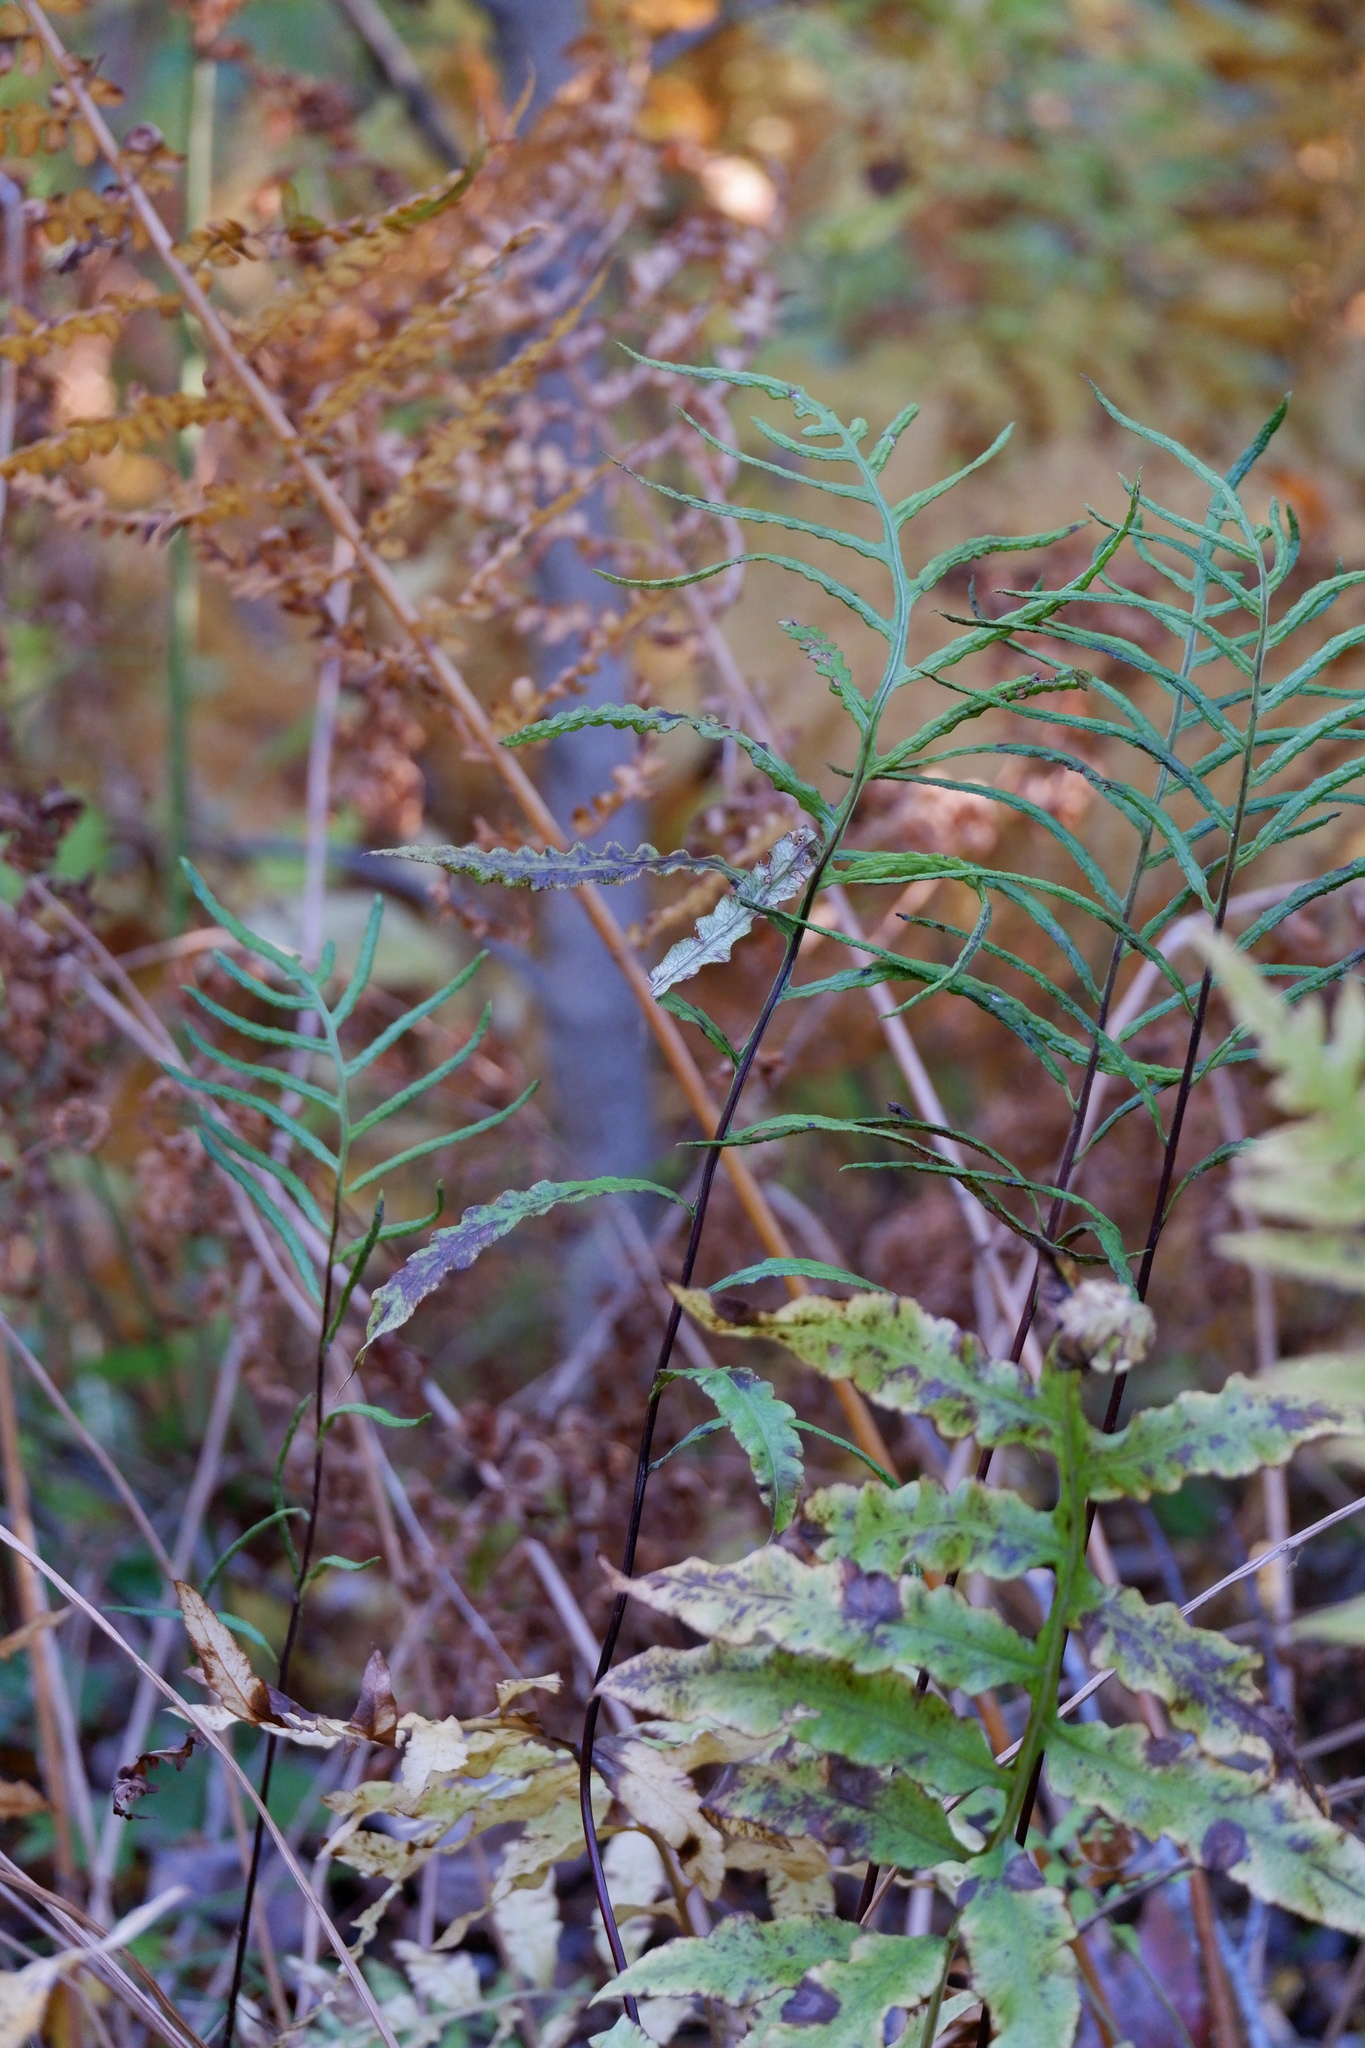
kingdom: Plantae
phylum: Tracheophyta
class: Polypodiopsida
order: Polypodiales
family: Blechnaceae
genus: Lorinseria
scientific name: Lorinseria areolata
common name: Dwarf chain fern
